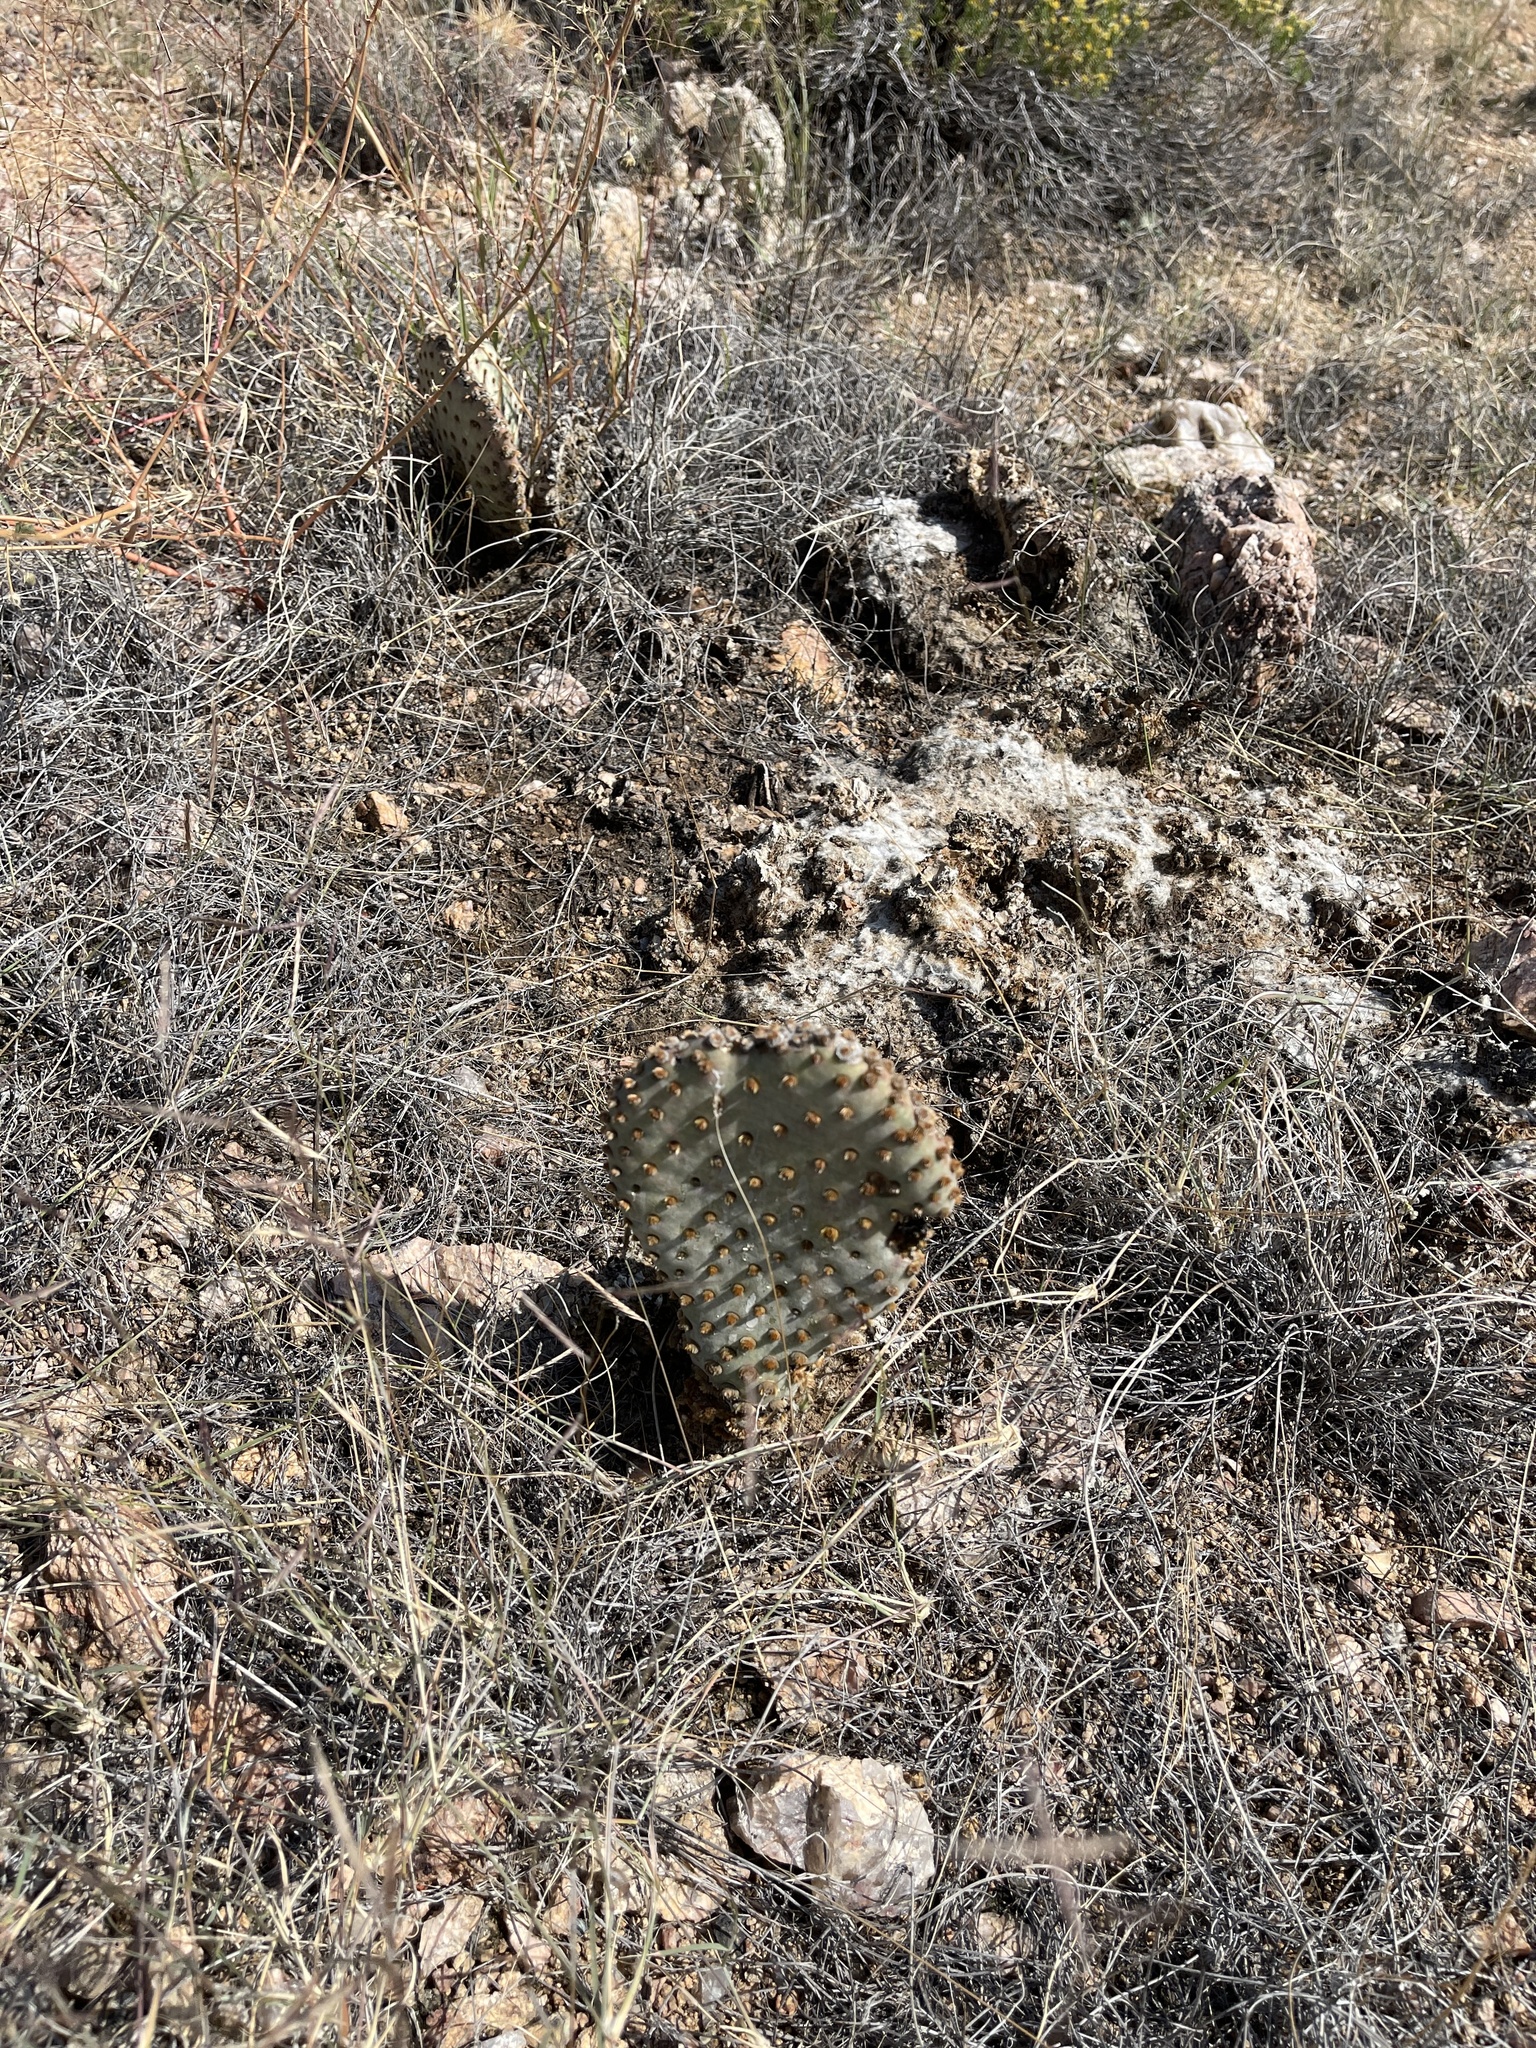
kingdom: Plantae
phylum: Tracheophyta
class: Magnoliopsida
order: Caryophyllales
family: Cactaceae
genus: Opuntia
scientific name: Opuntia basilaris
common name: Beavertail prickly-pear
